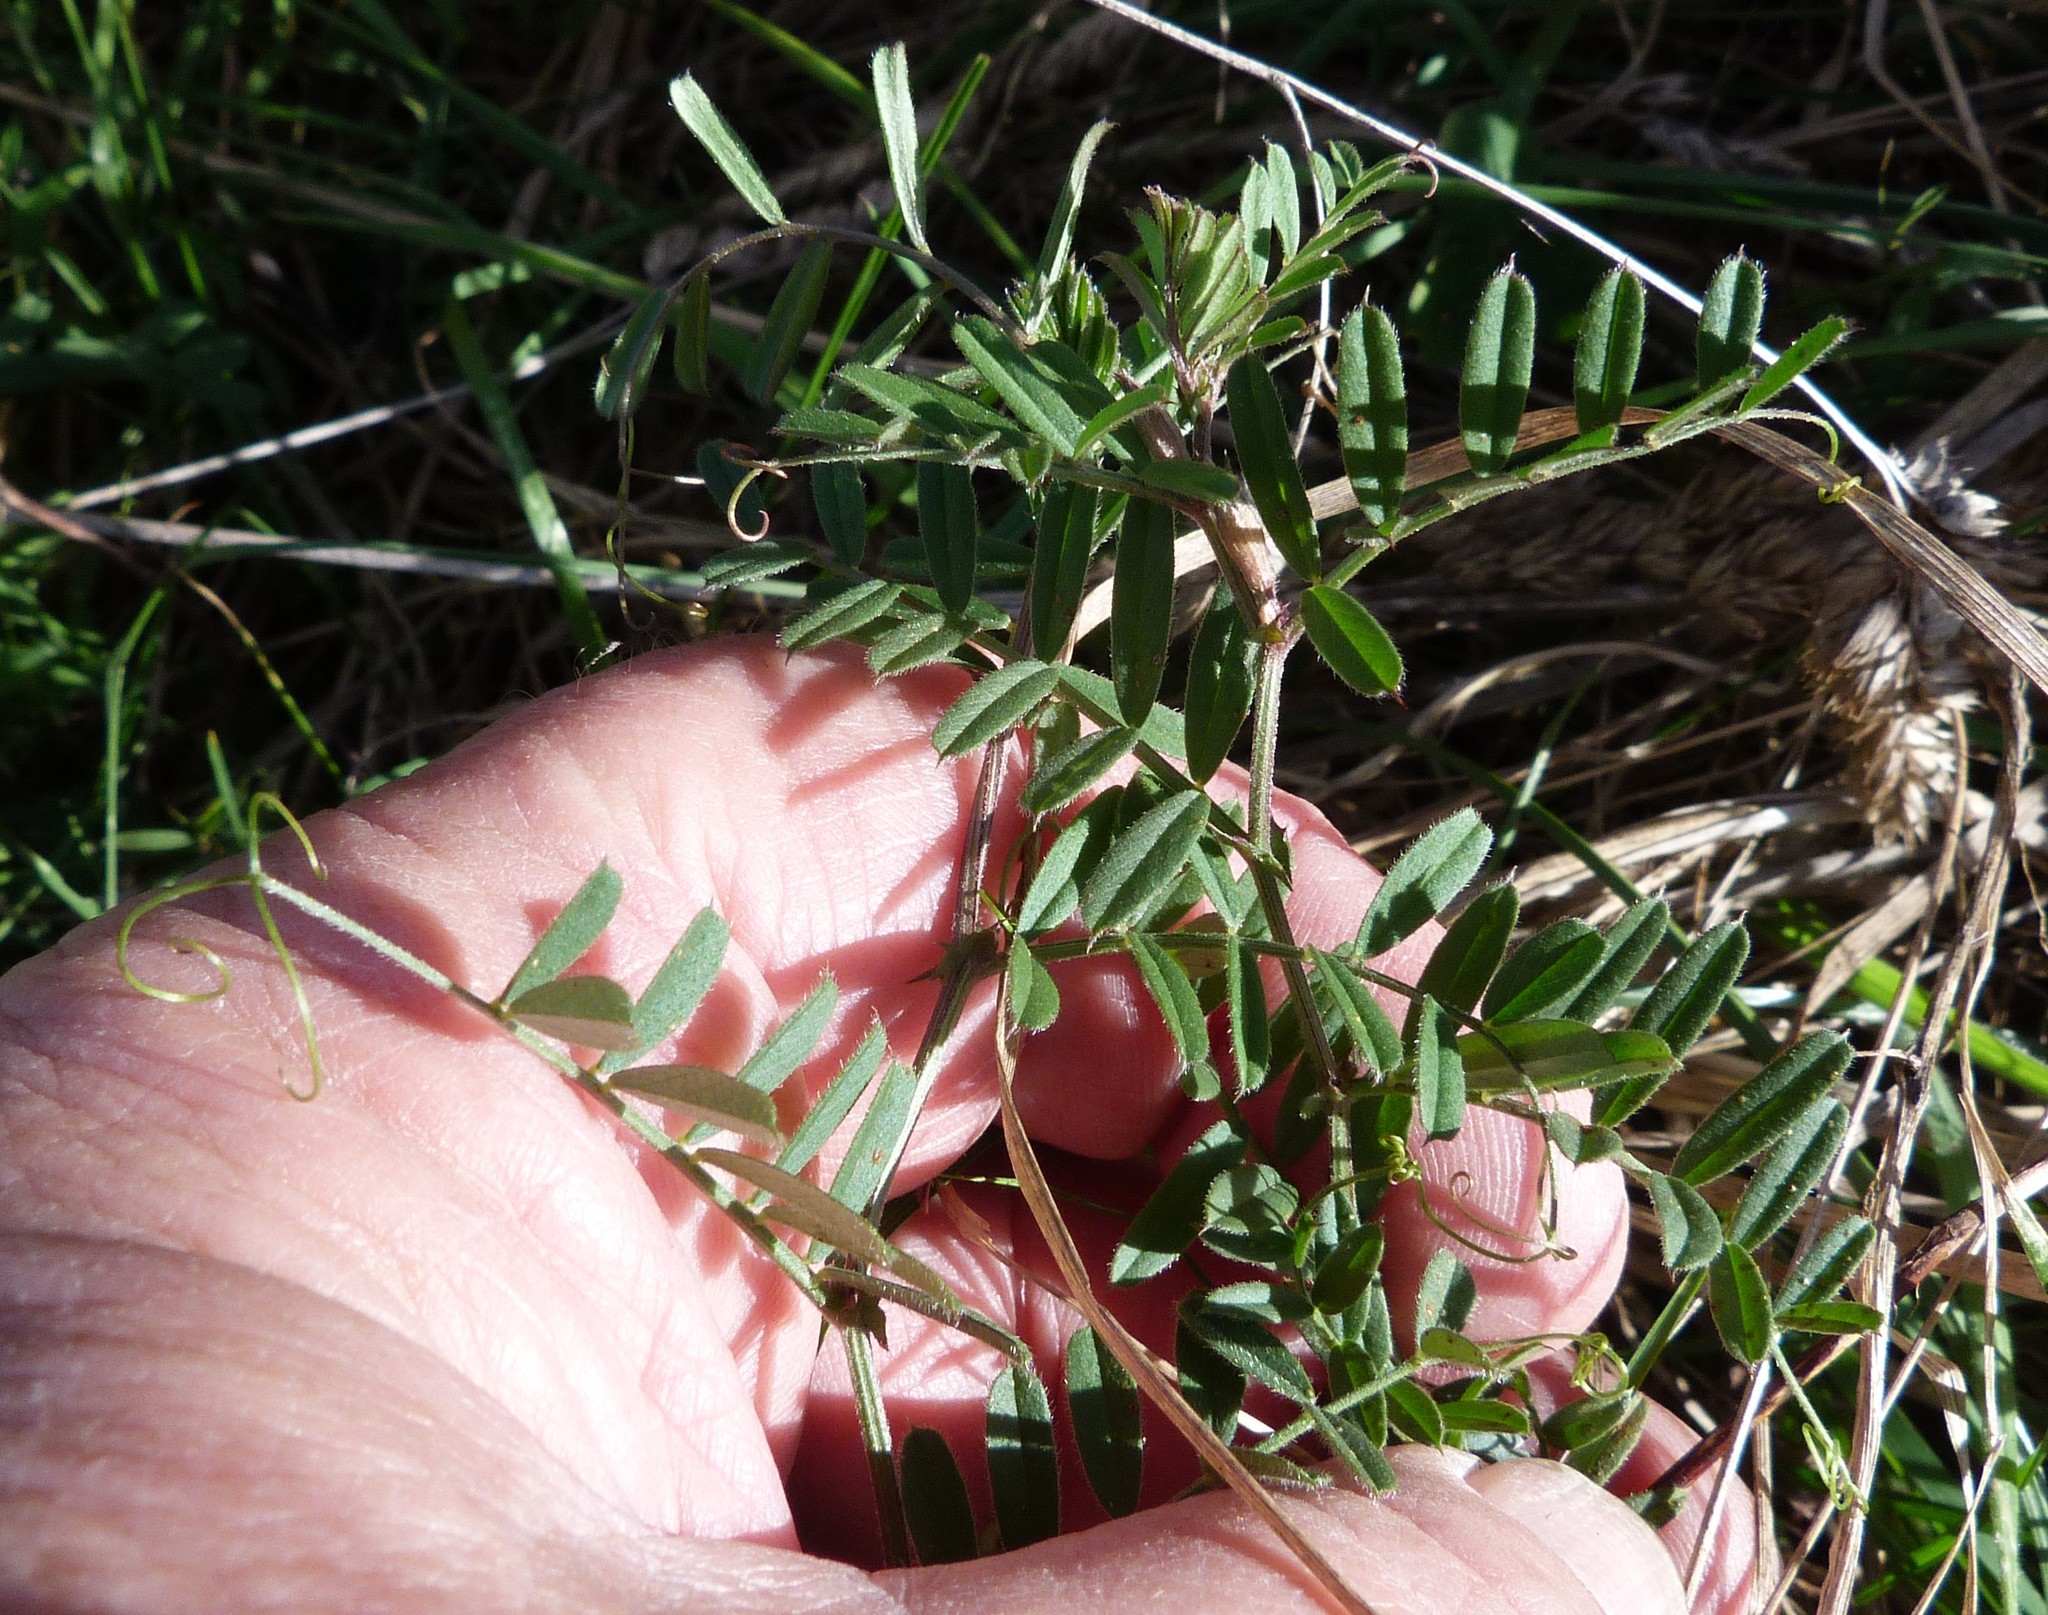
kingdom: Plantae
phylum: Tracheophyta
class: Magnoliopsida
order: Fabales
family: Fabaceae
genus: Vicia
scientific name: Vicia sativa
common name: Garden vetch
